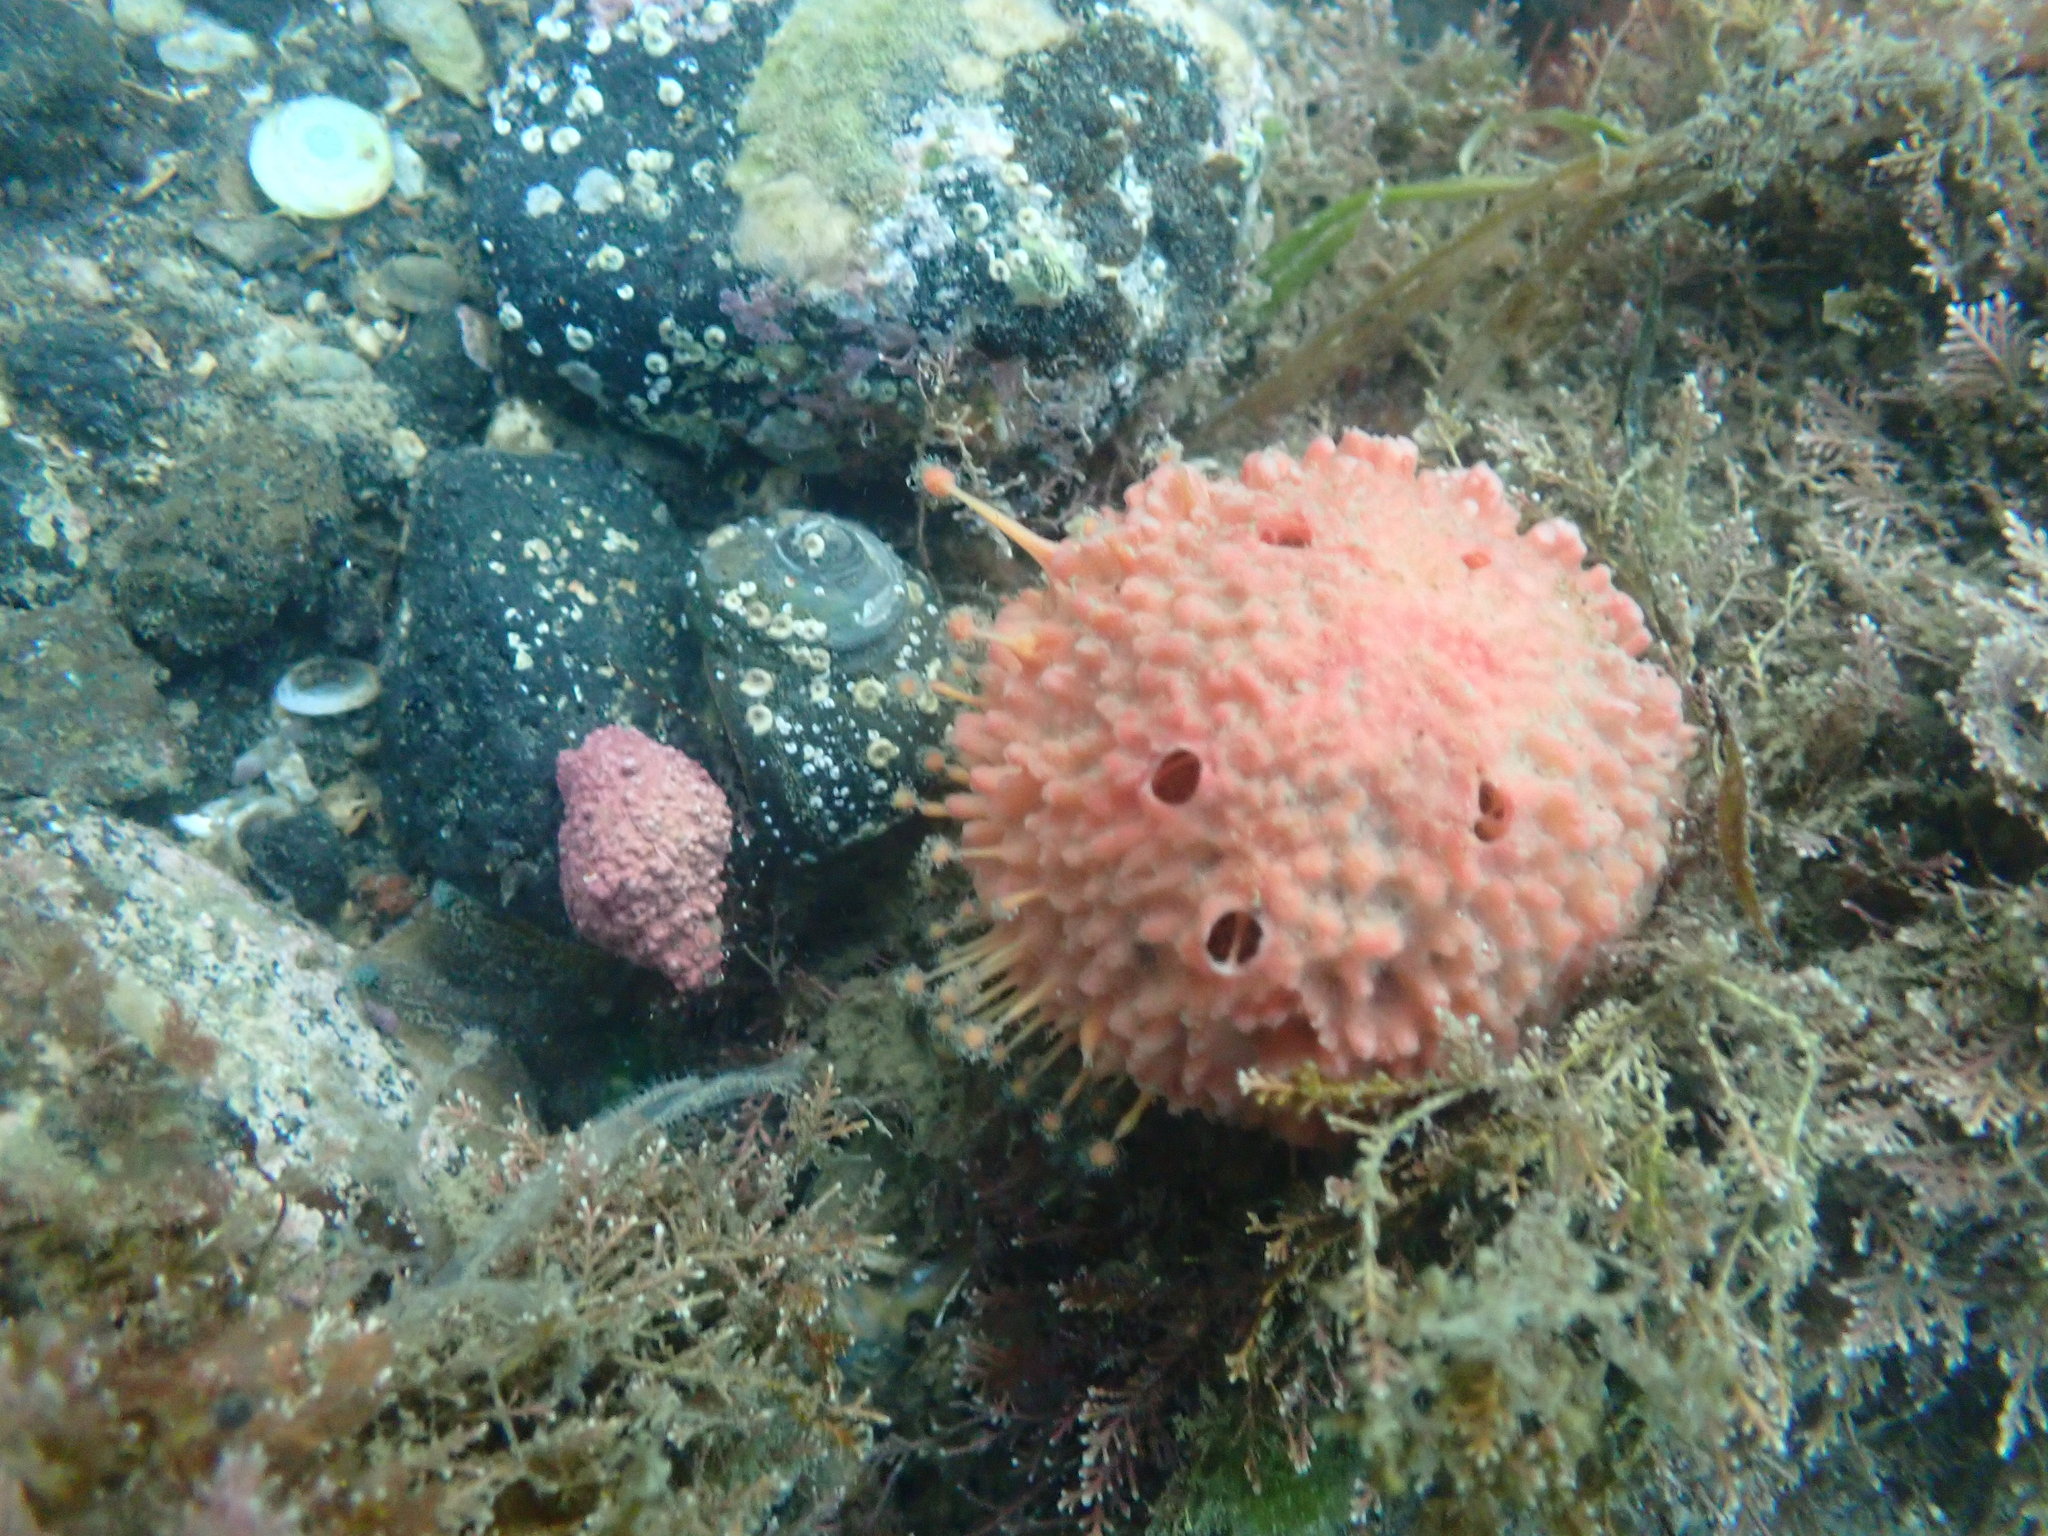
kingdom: Animalia
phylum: Porifera
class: Demospongiae
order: Tethyida
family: Tethyidae
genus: Tethya
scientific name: Tethya bergquistae
